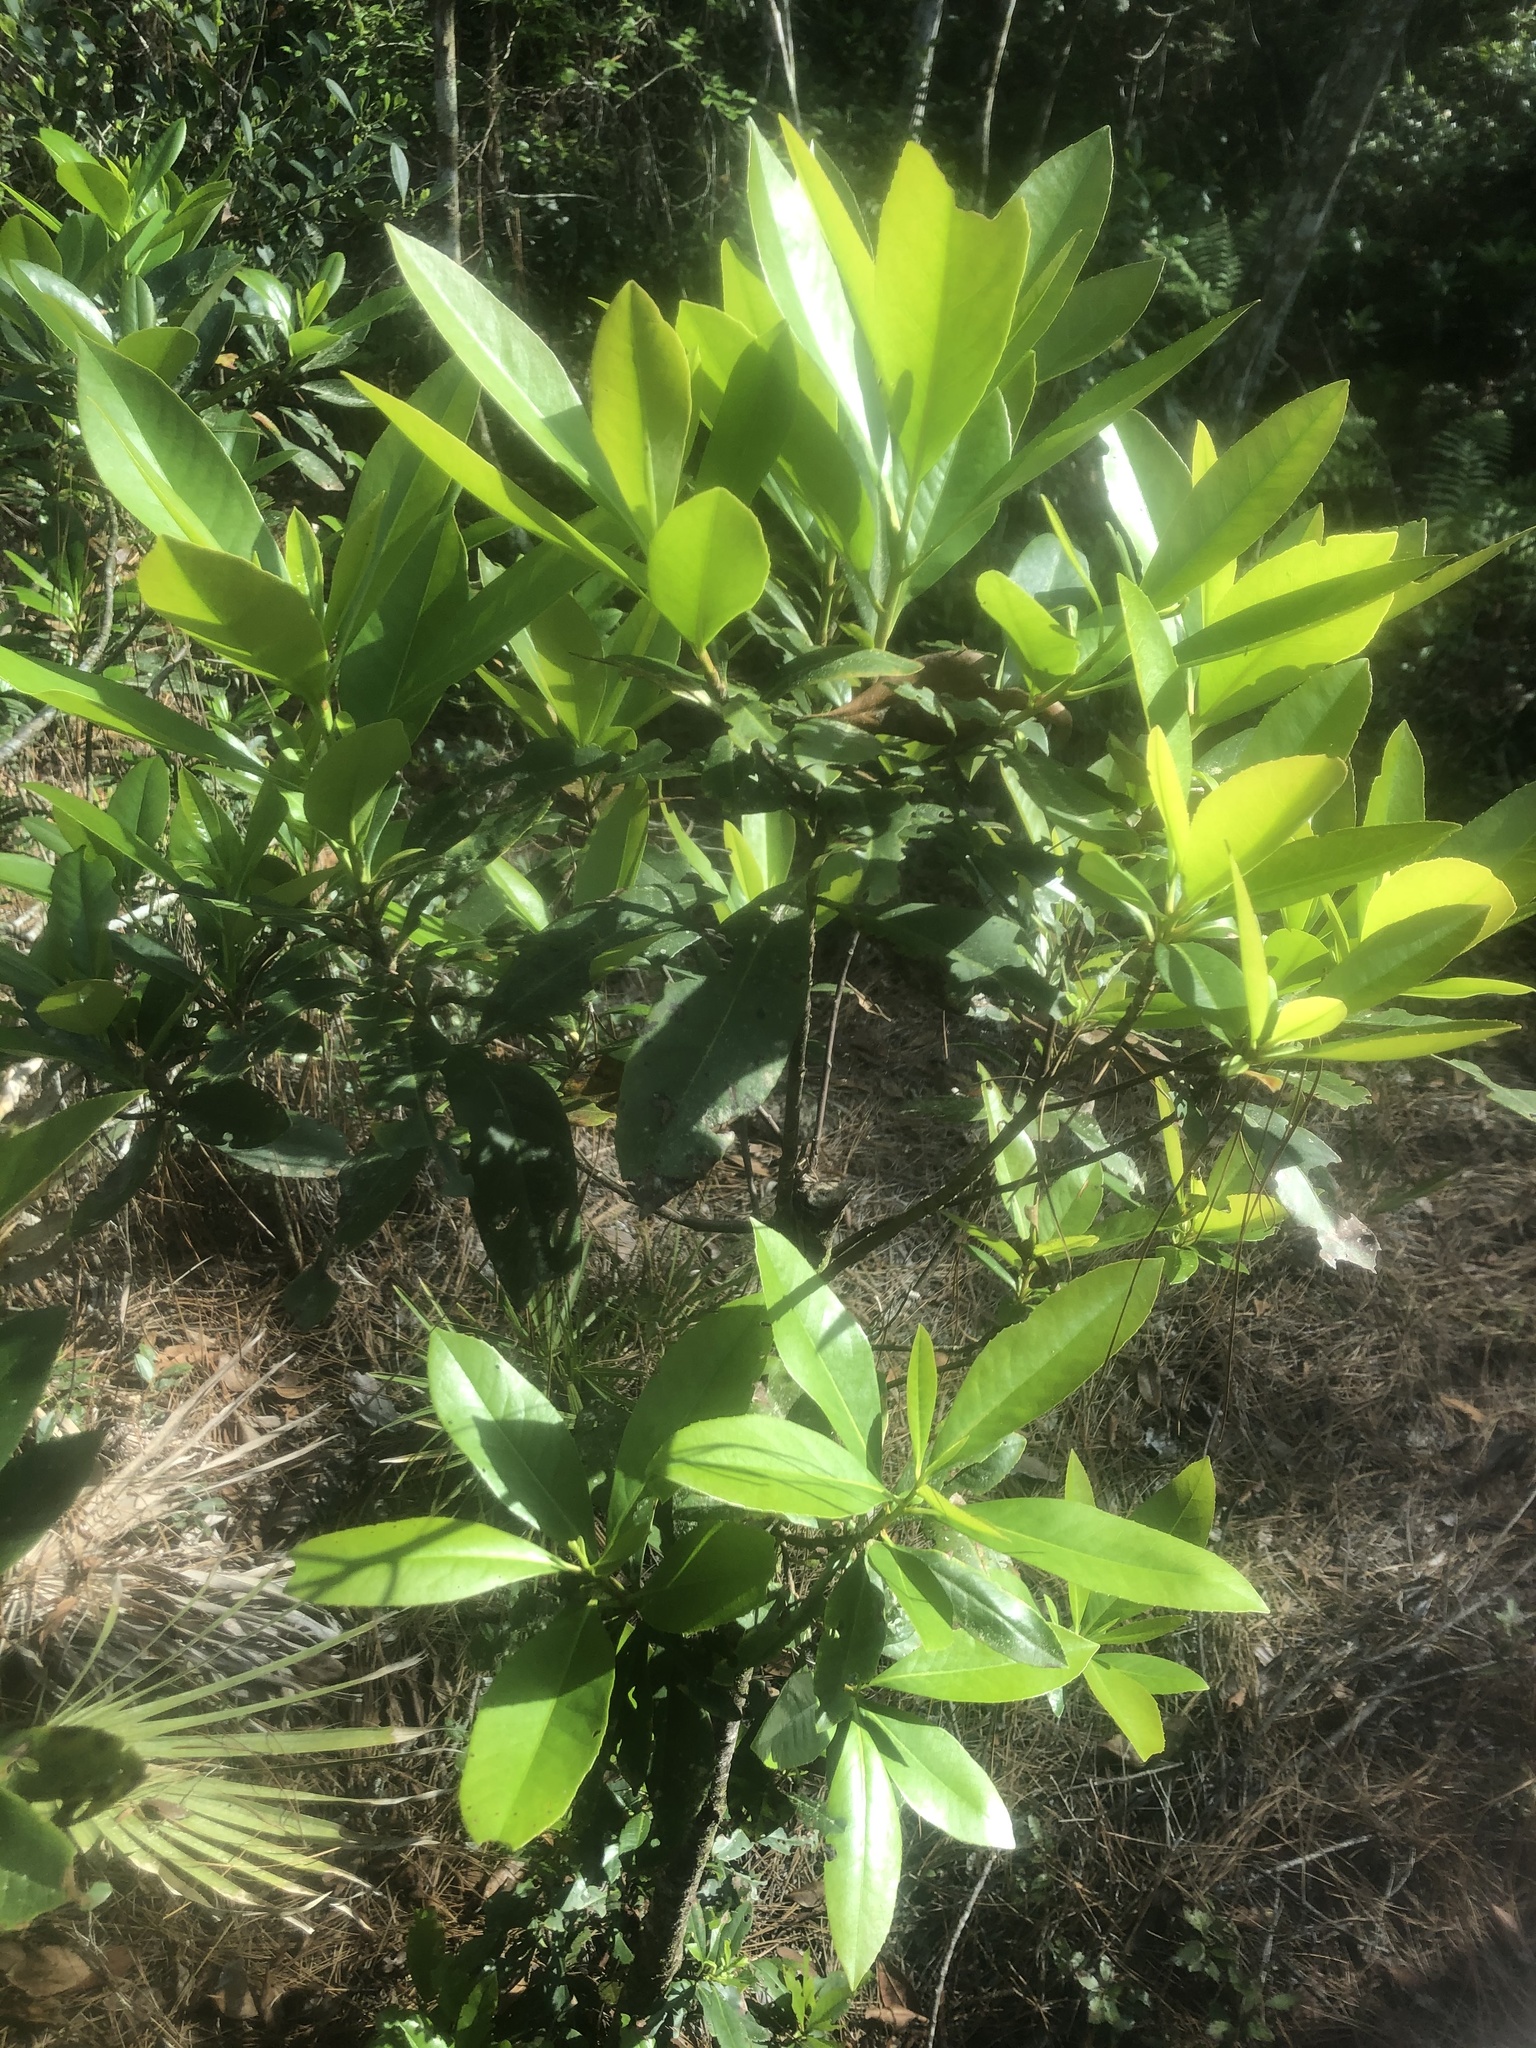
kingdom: Plantae
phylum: Tracheophyta
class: Magnoliopsida
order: Ericales
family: Theaceae
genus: Gordonia
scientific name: Gordonia lasianthus
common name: Loblolly bay
